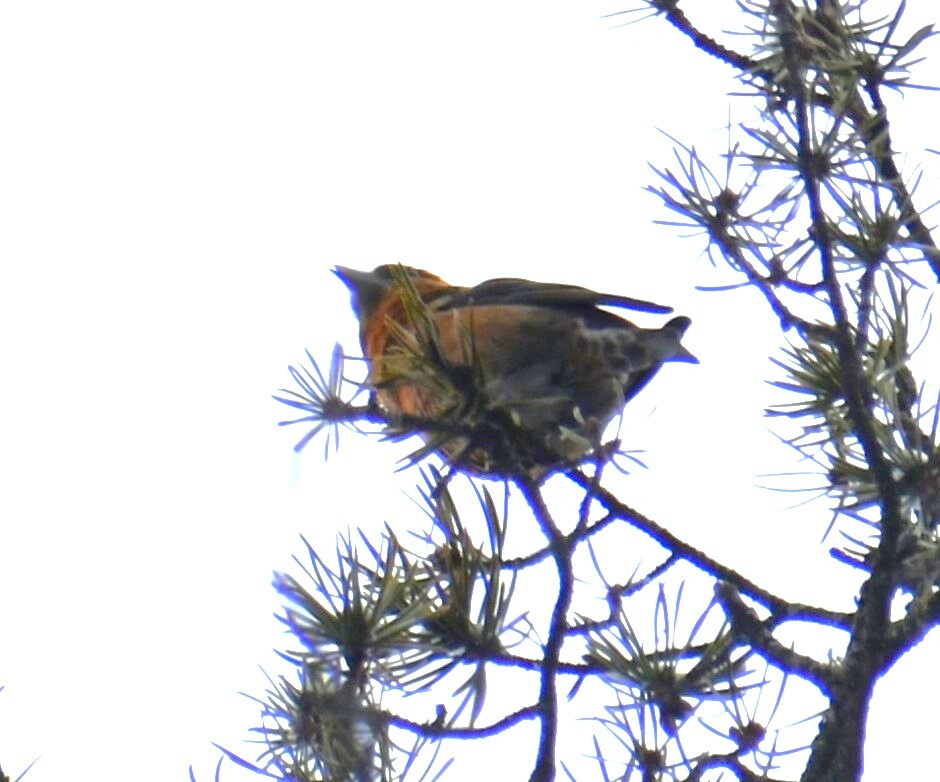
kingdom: Animalia
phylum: Chordata
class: Aves
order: Passeriformes
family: Fringillidae
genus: Loxia
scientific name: Loxia curvirostra
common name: Red crossbill
